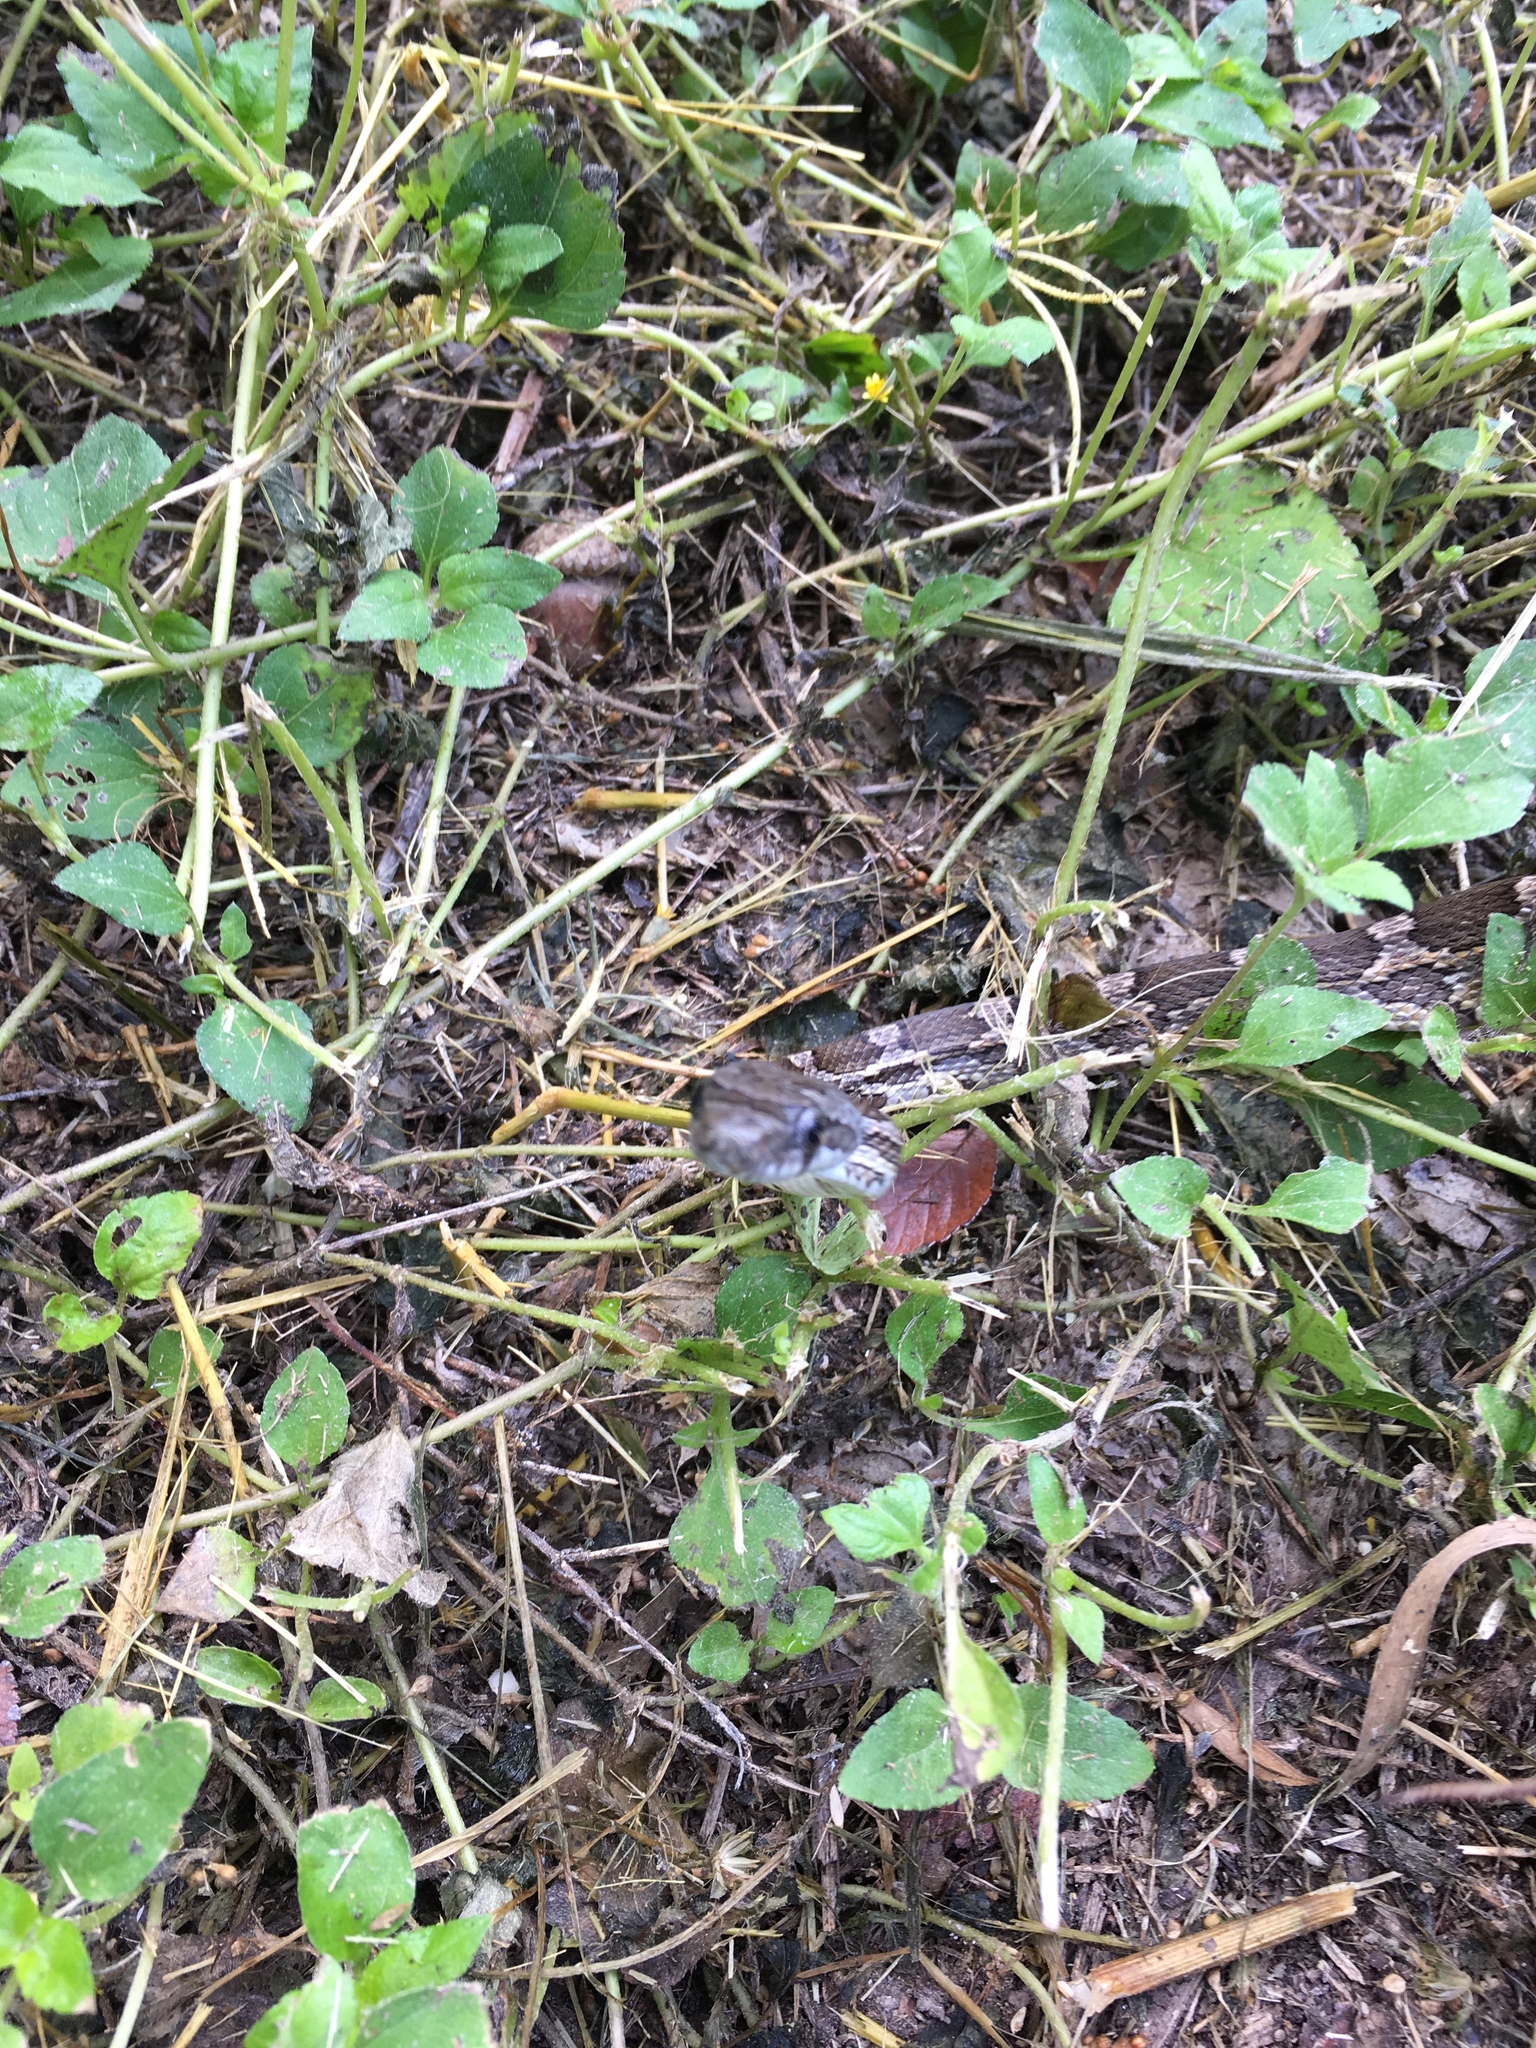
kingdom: Animalia
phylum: Chordata
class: Squamata
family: Colubridae
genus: Pantherophis
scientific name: Pantherophis obsoletus
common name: Black rat snake
